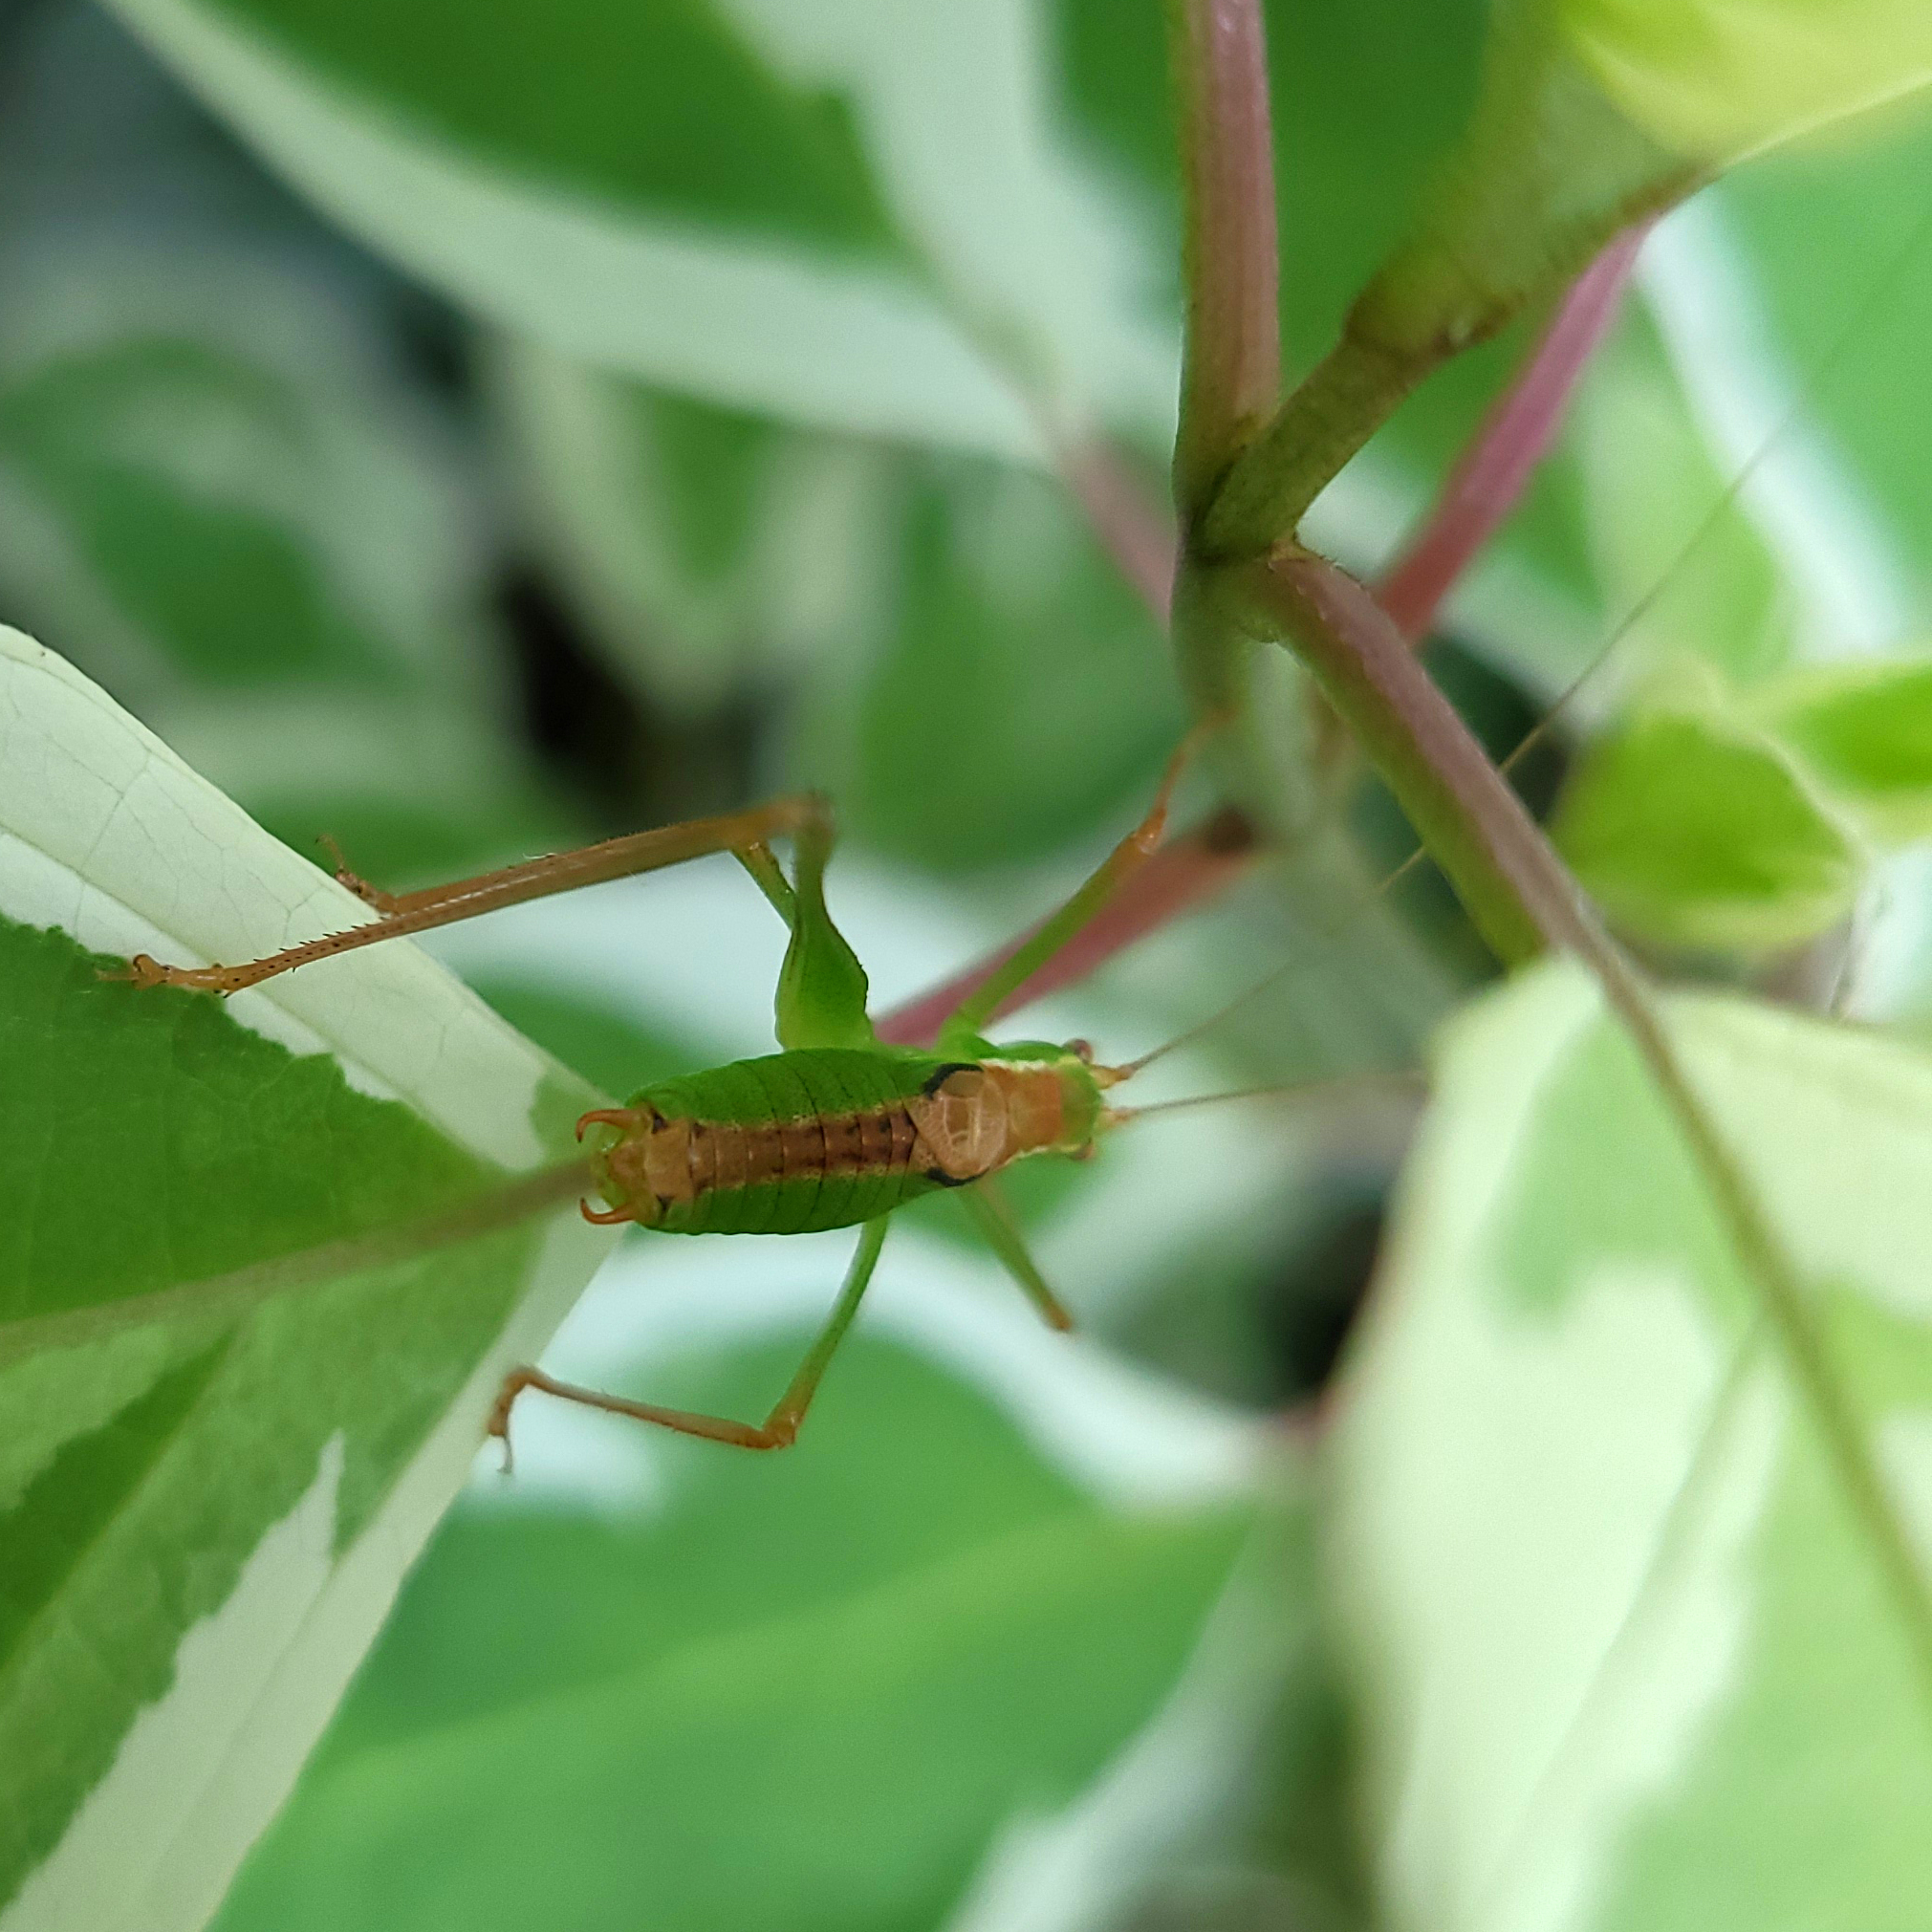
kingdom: Animalia
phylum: Arthropoda
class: Insecta
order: Orthoptera
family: Tettigoniidae
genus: Leptophyes
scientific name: Leptophyes punctatissima
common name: Speckled bush-cricket
